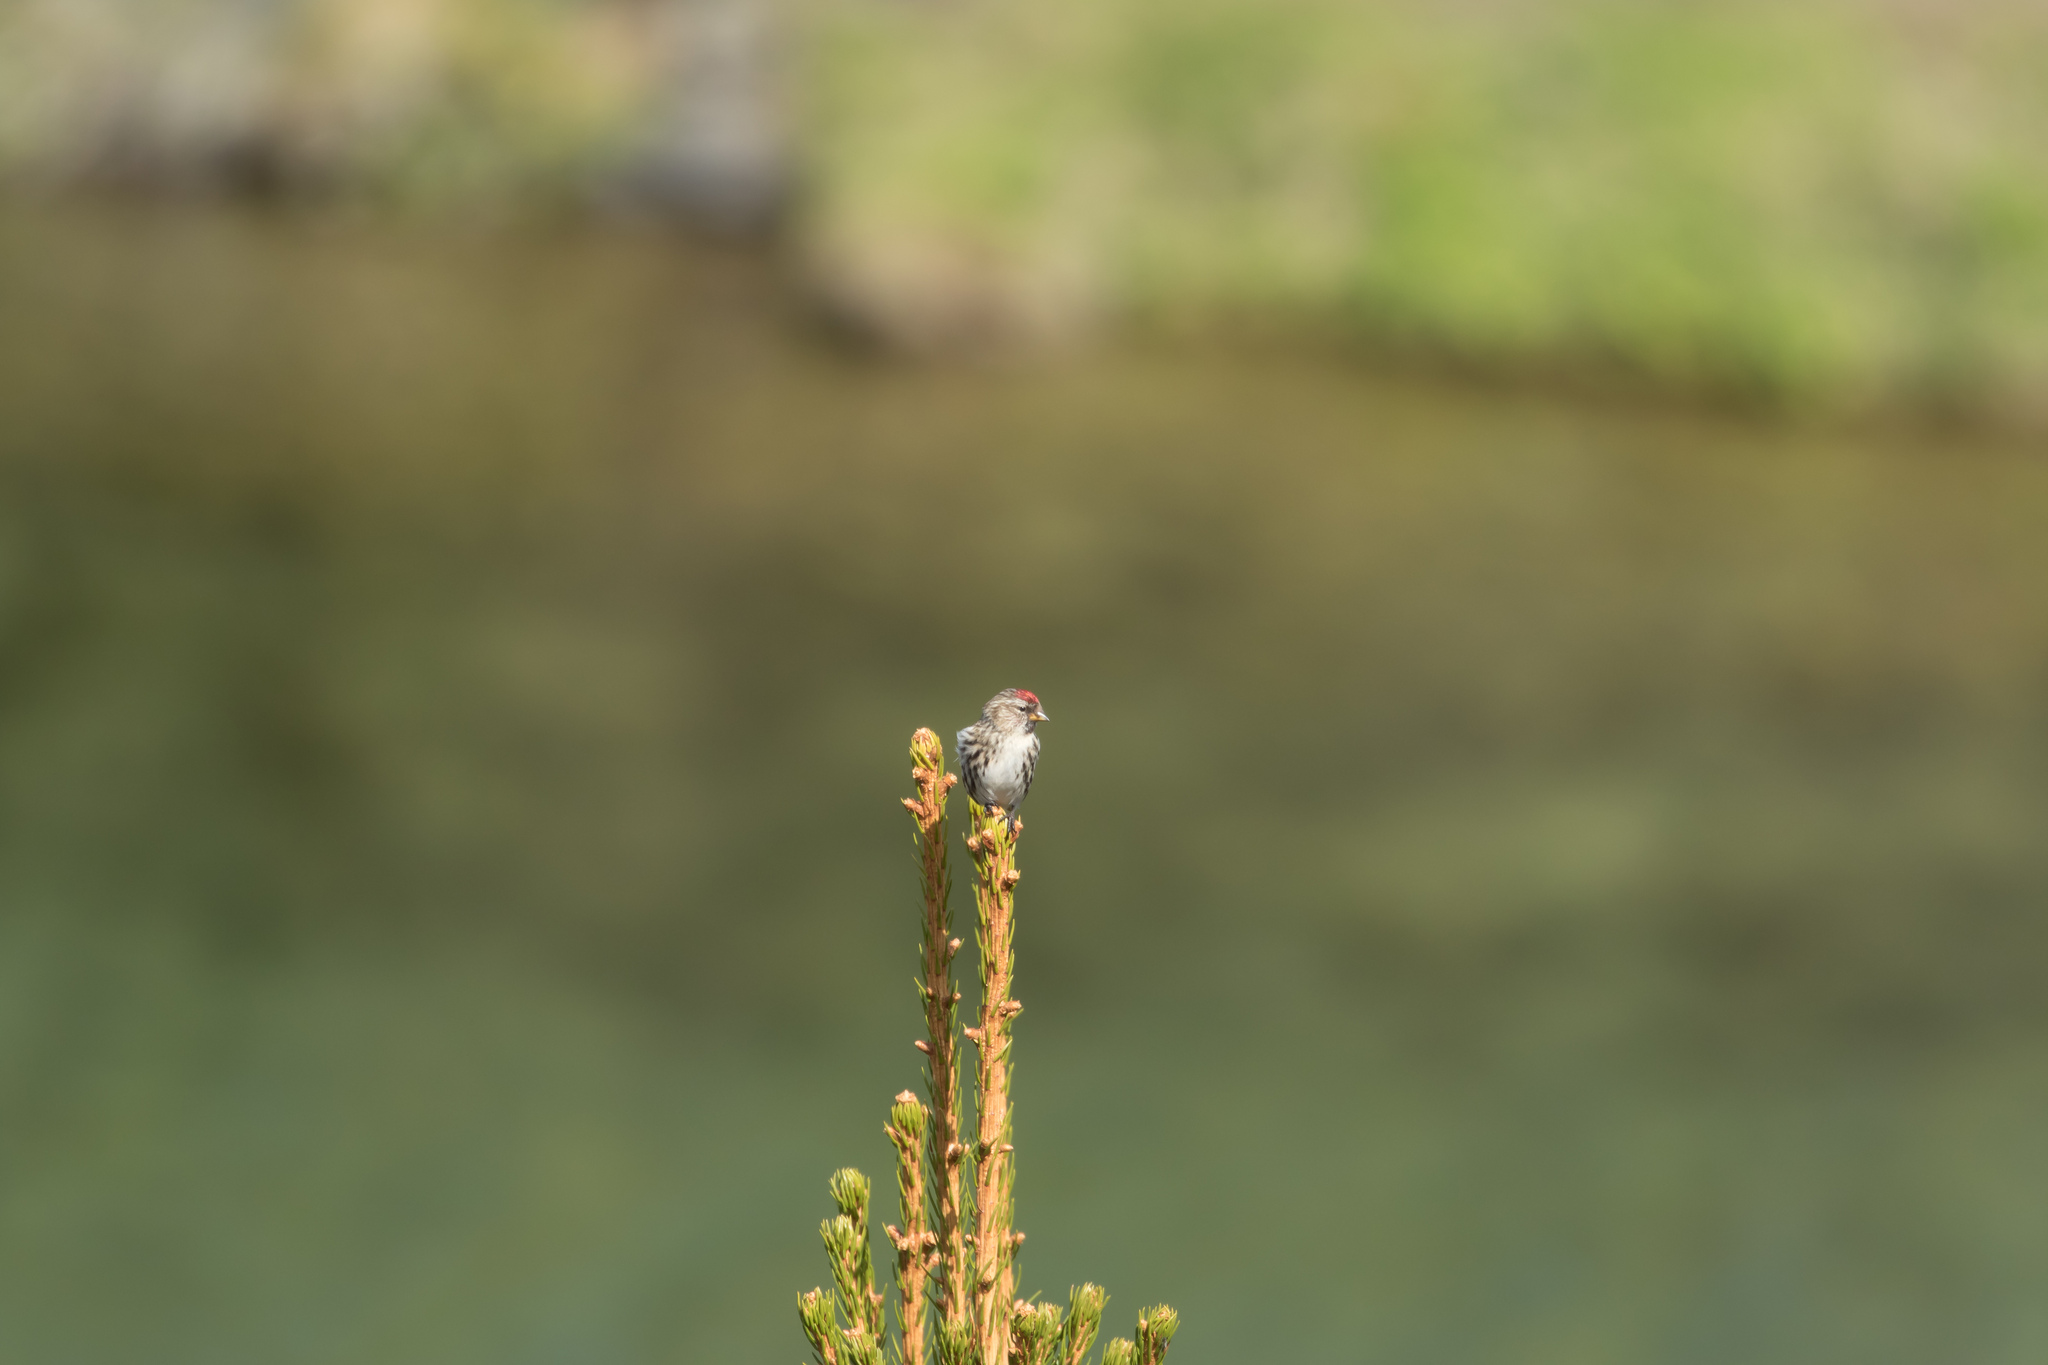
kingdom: Animalia
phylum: Chordata
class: Aves
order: Passeriformes
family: Fringillidae
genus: Acanthis
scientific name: Acanthis flammea
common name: Common redpoll
